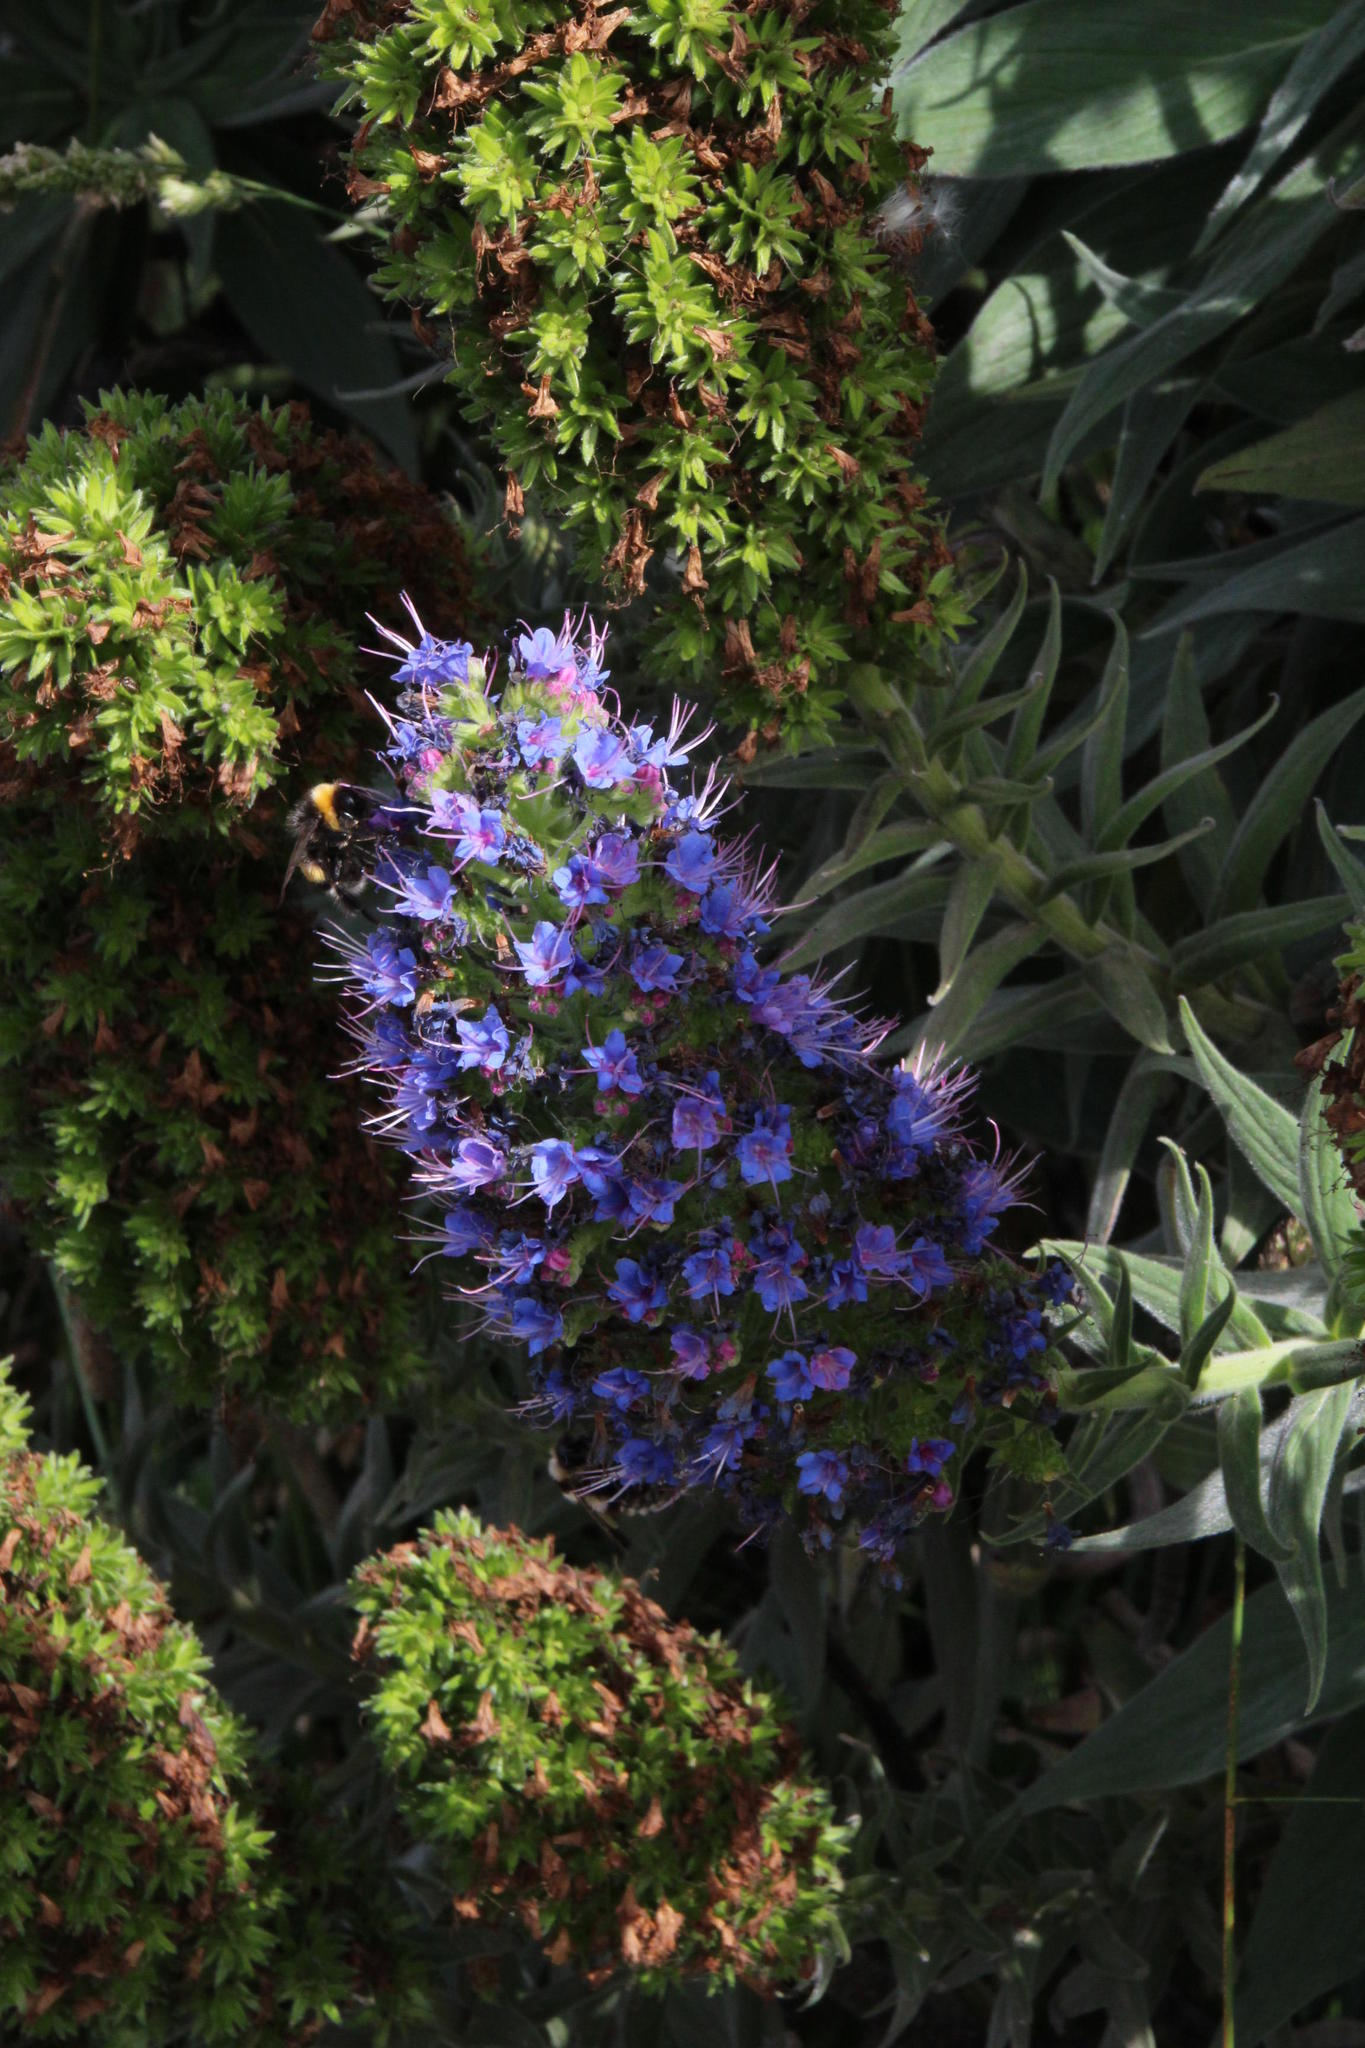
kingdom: Plantae
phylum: Tracheophyta
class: Magnoliopsida
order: Boraginales
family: Boraginaceae
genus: Echium
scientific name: Echium candicans
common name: Pride of madeira
